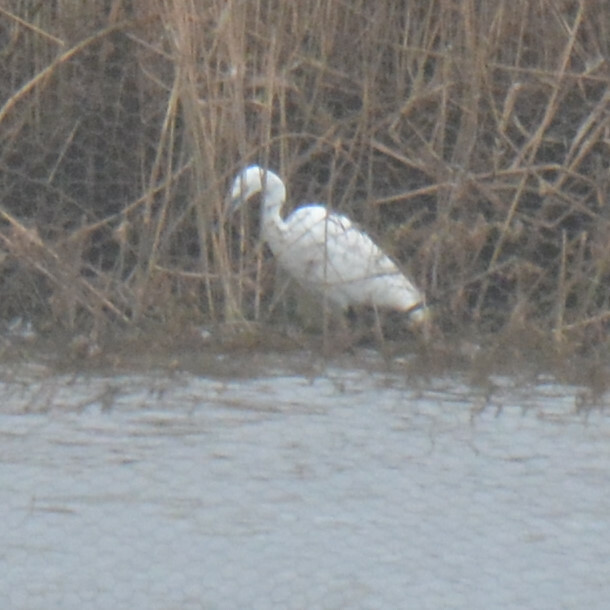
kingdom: Animalia
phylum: Chordata
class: Aves
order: Pelecaniformes
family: Ardeidae
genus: Egretta
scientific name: Egretta garzetta
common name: Little egret
